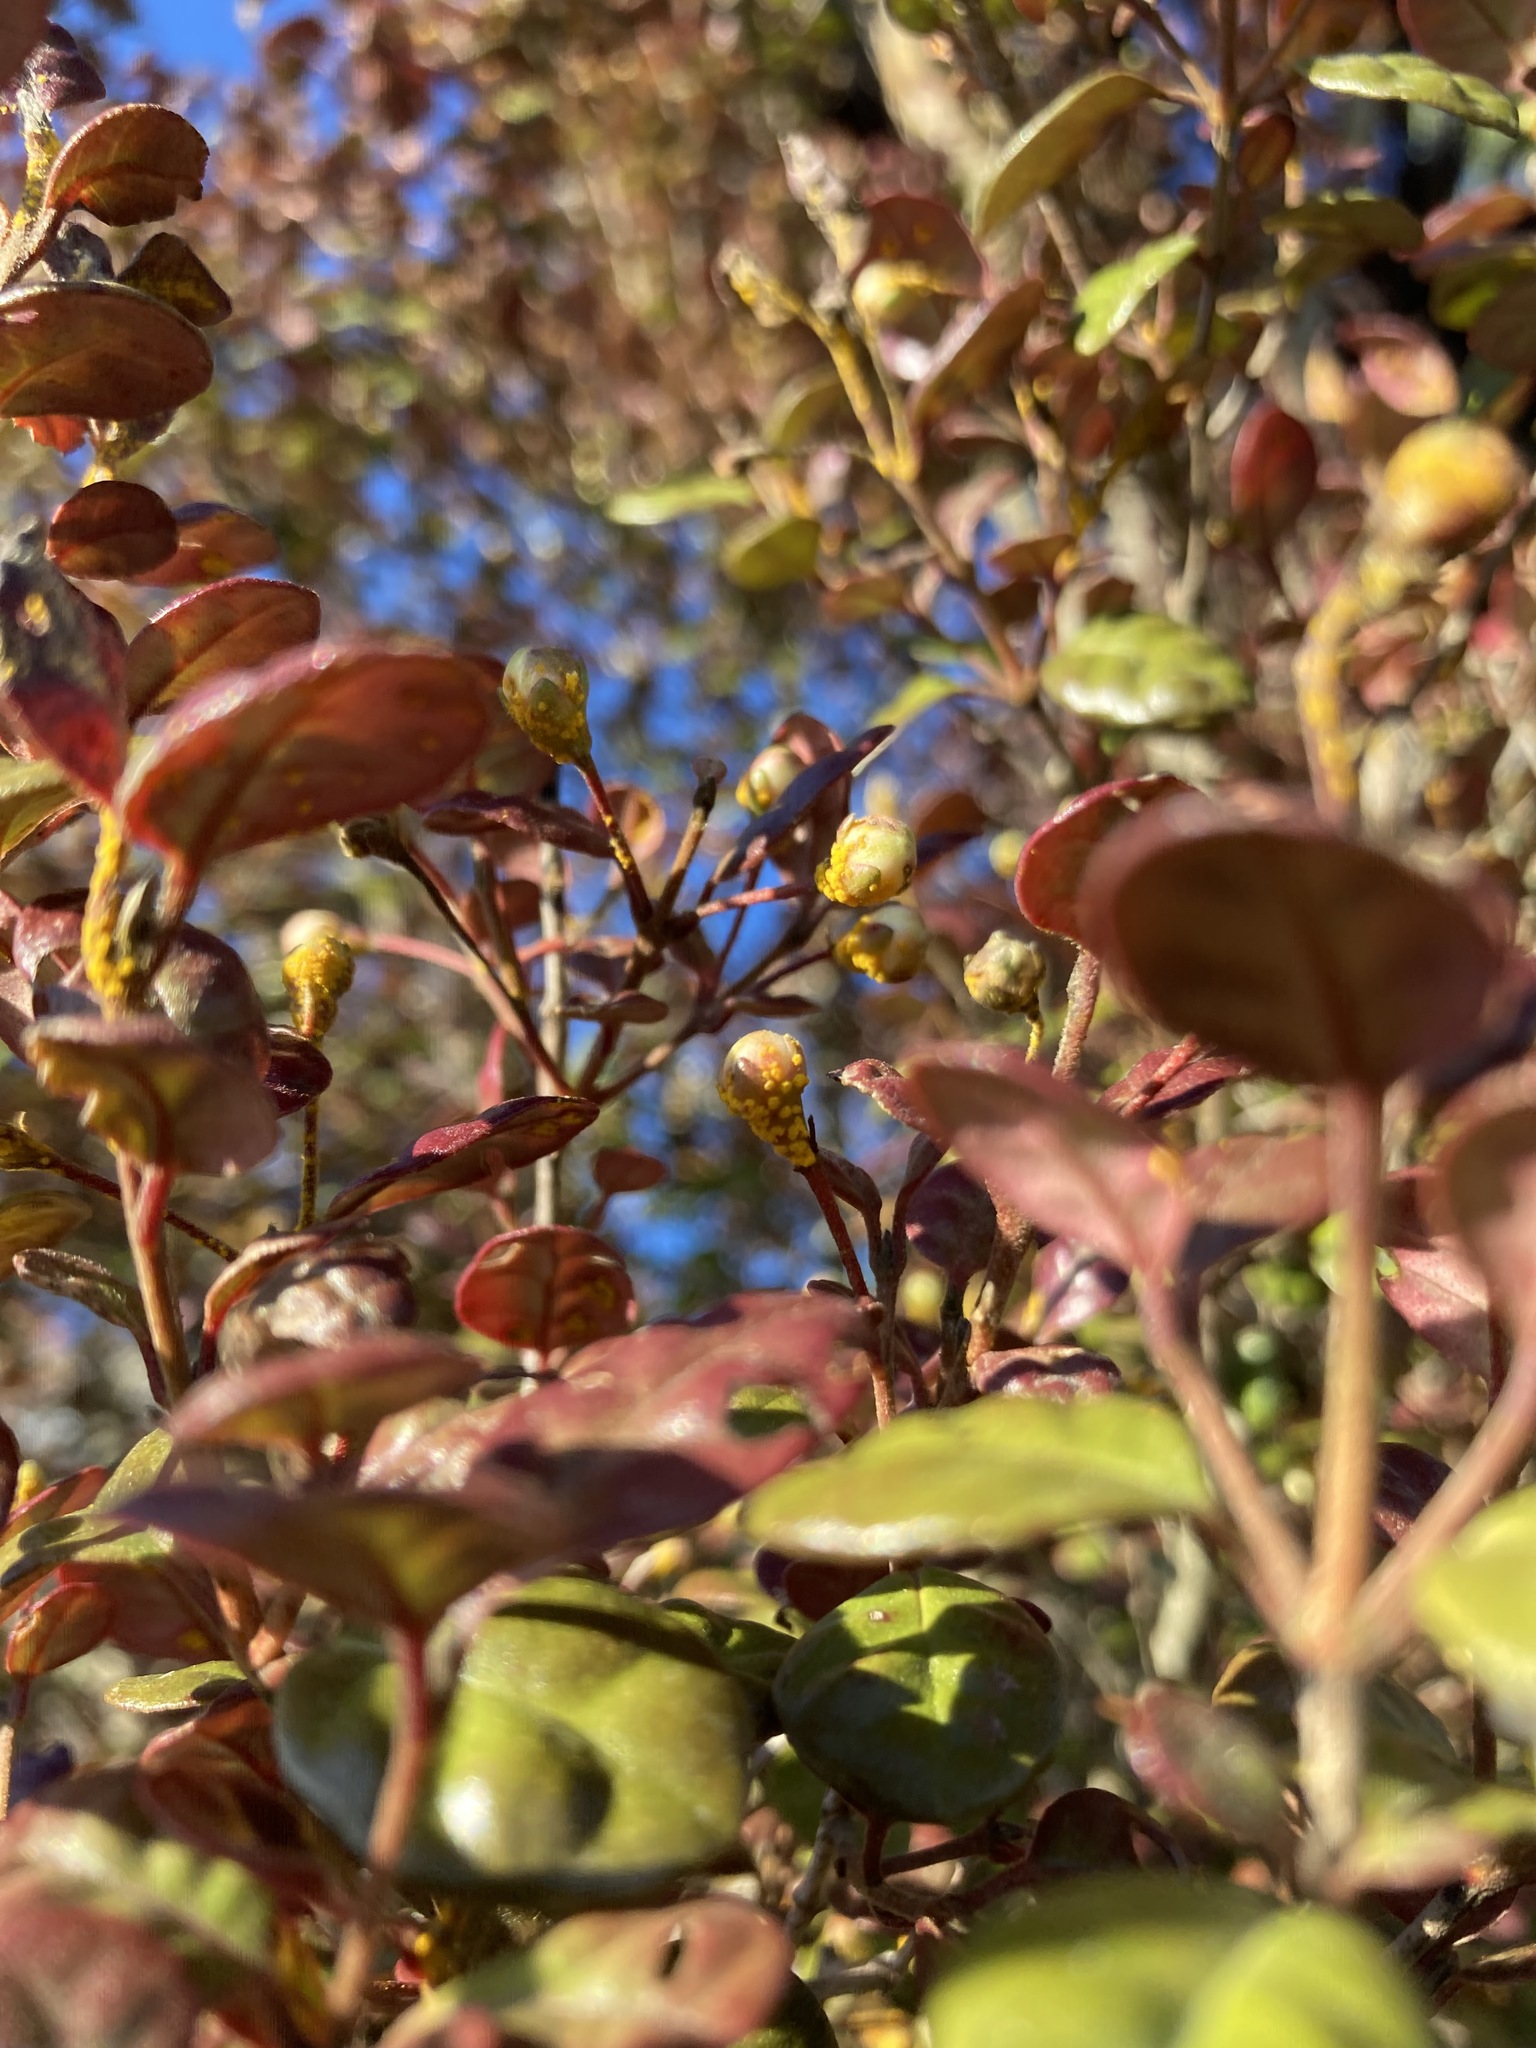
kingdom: Fungi
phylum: Basidiomycota
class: Pucciniomycetes
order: Pucciniales
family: Sphaerophragmiaceae
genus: Austropuccinia
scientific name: Austropuccinia psidii
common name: Myrtle rust
